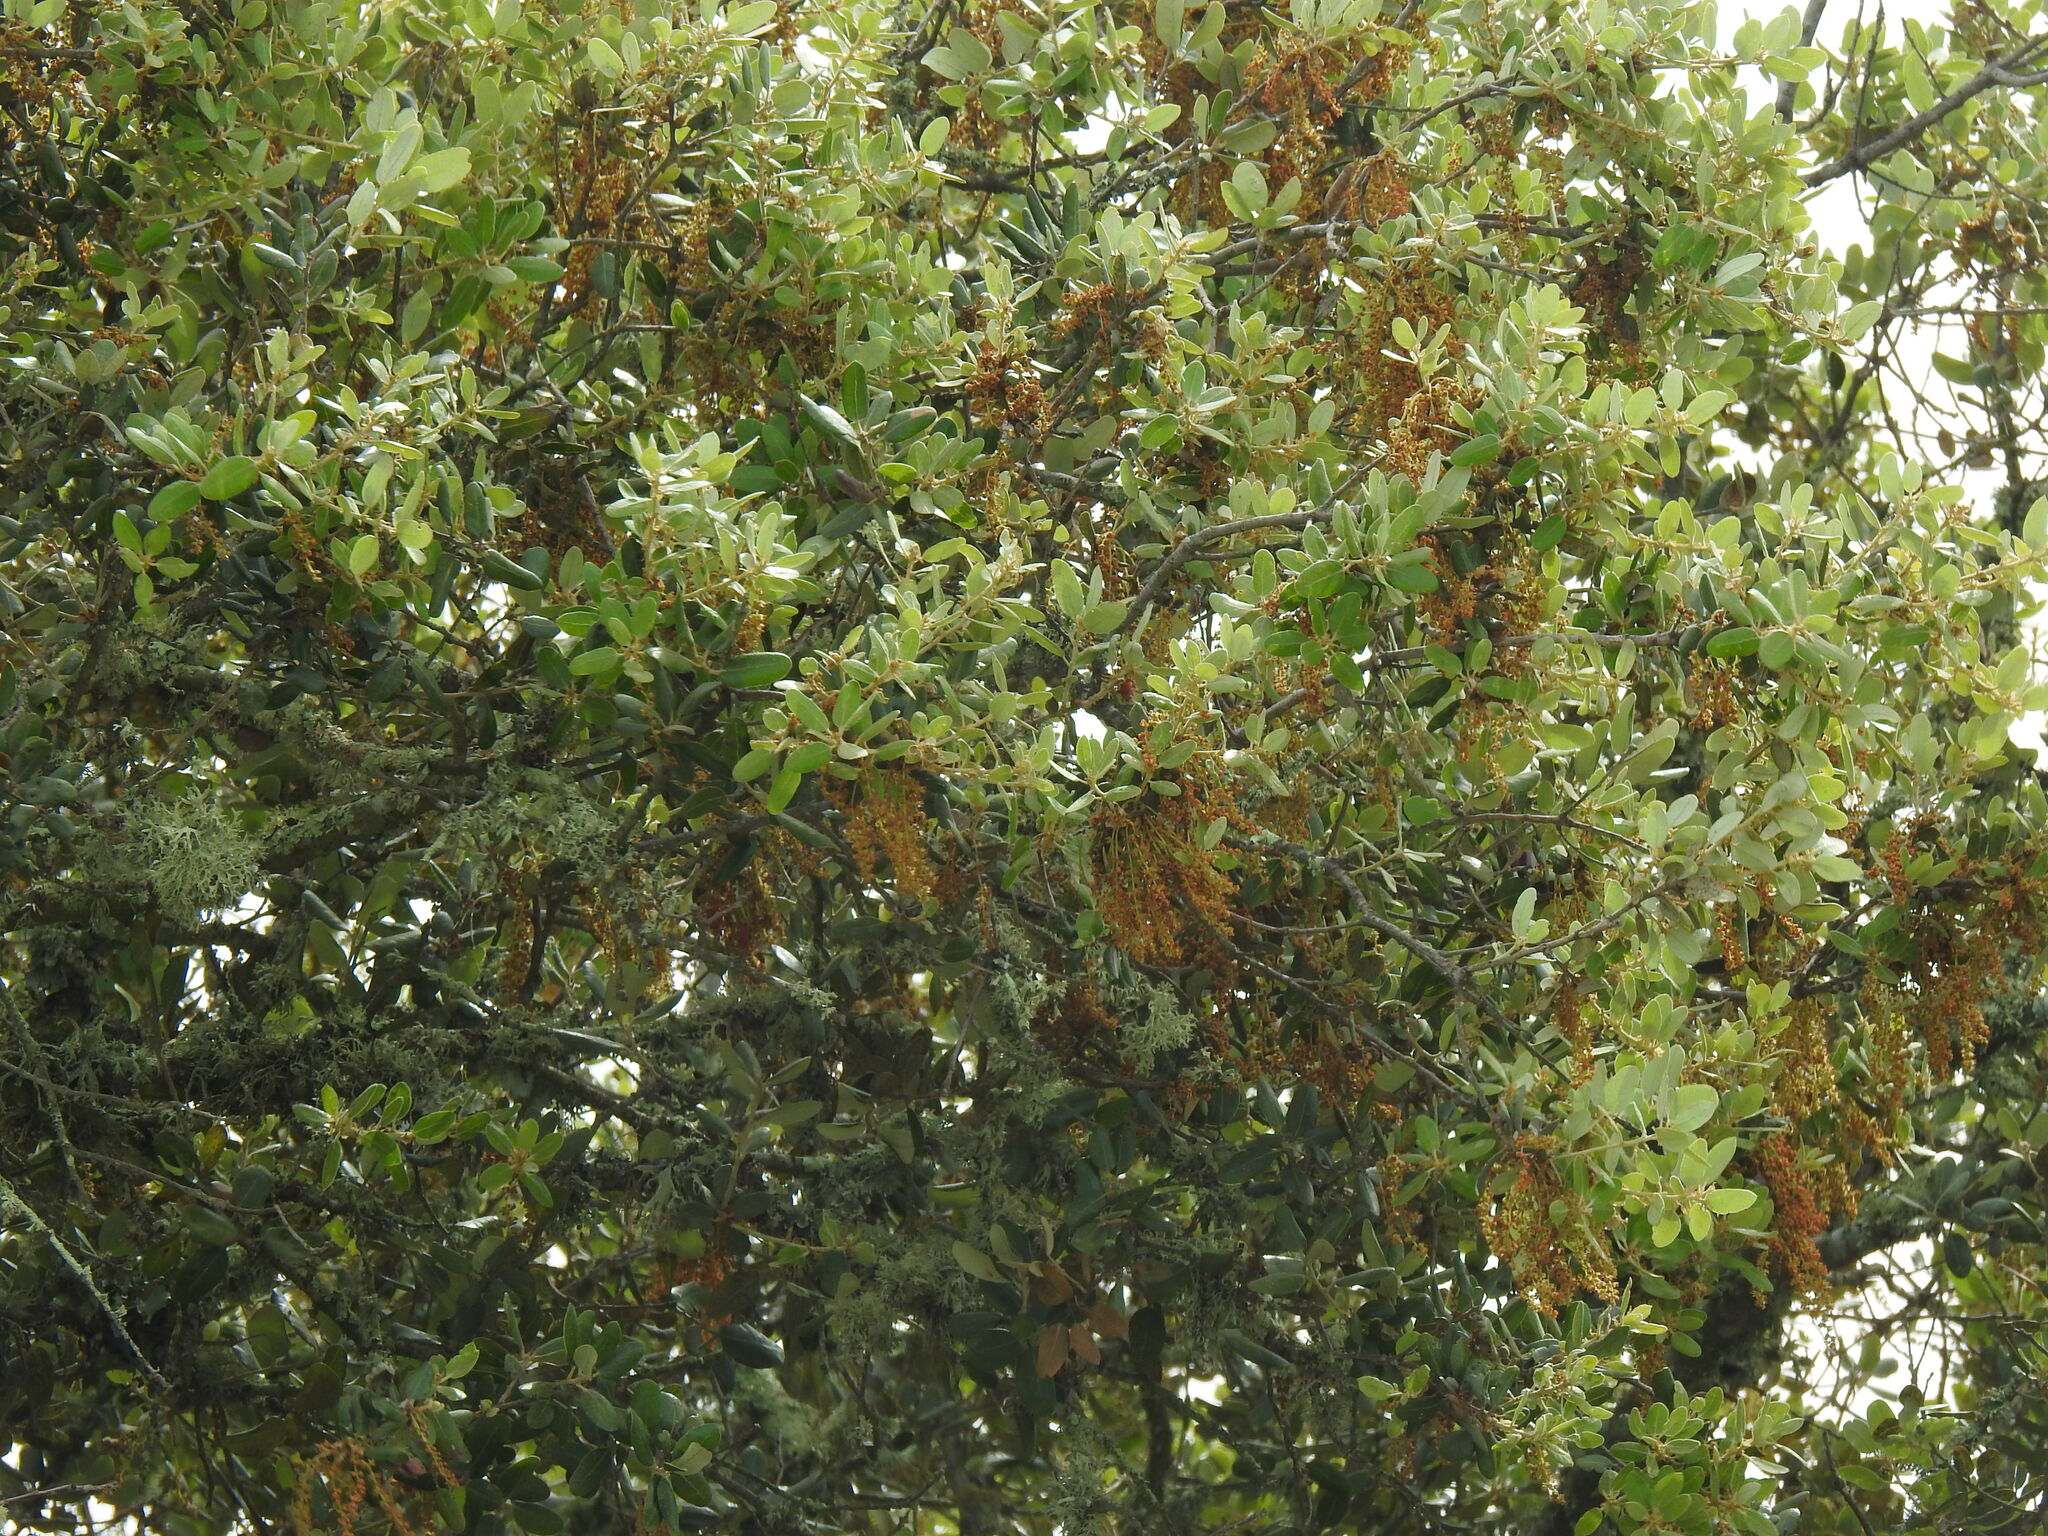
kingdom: Plantae
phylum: Tracheophyta
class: Magnoliopsida
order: Fagales
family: Fagaceae
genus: Quercus
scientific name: Quercus rotundifolia
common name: Holm oak
